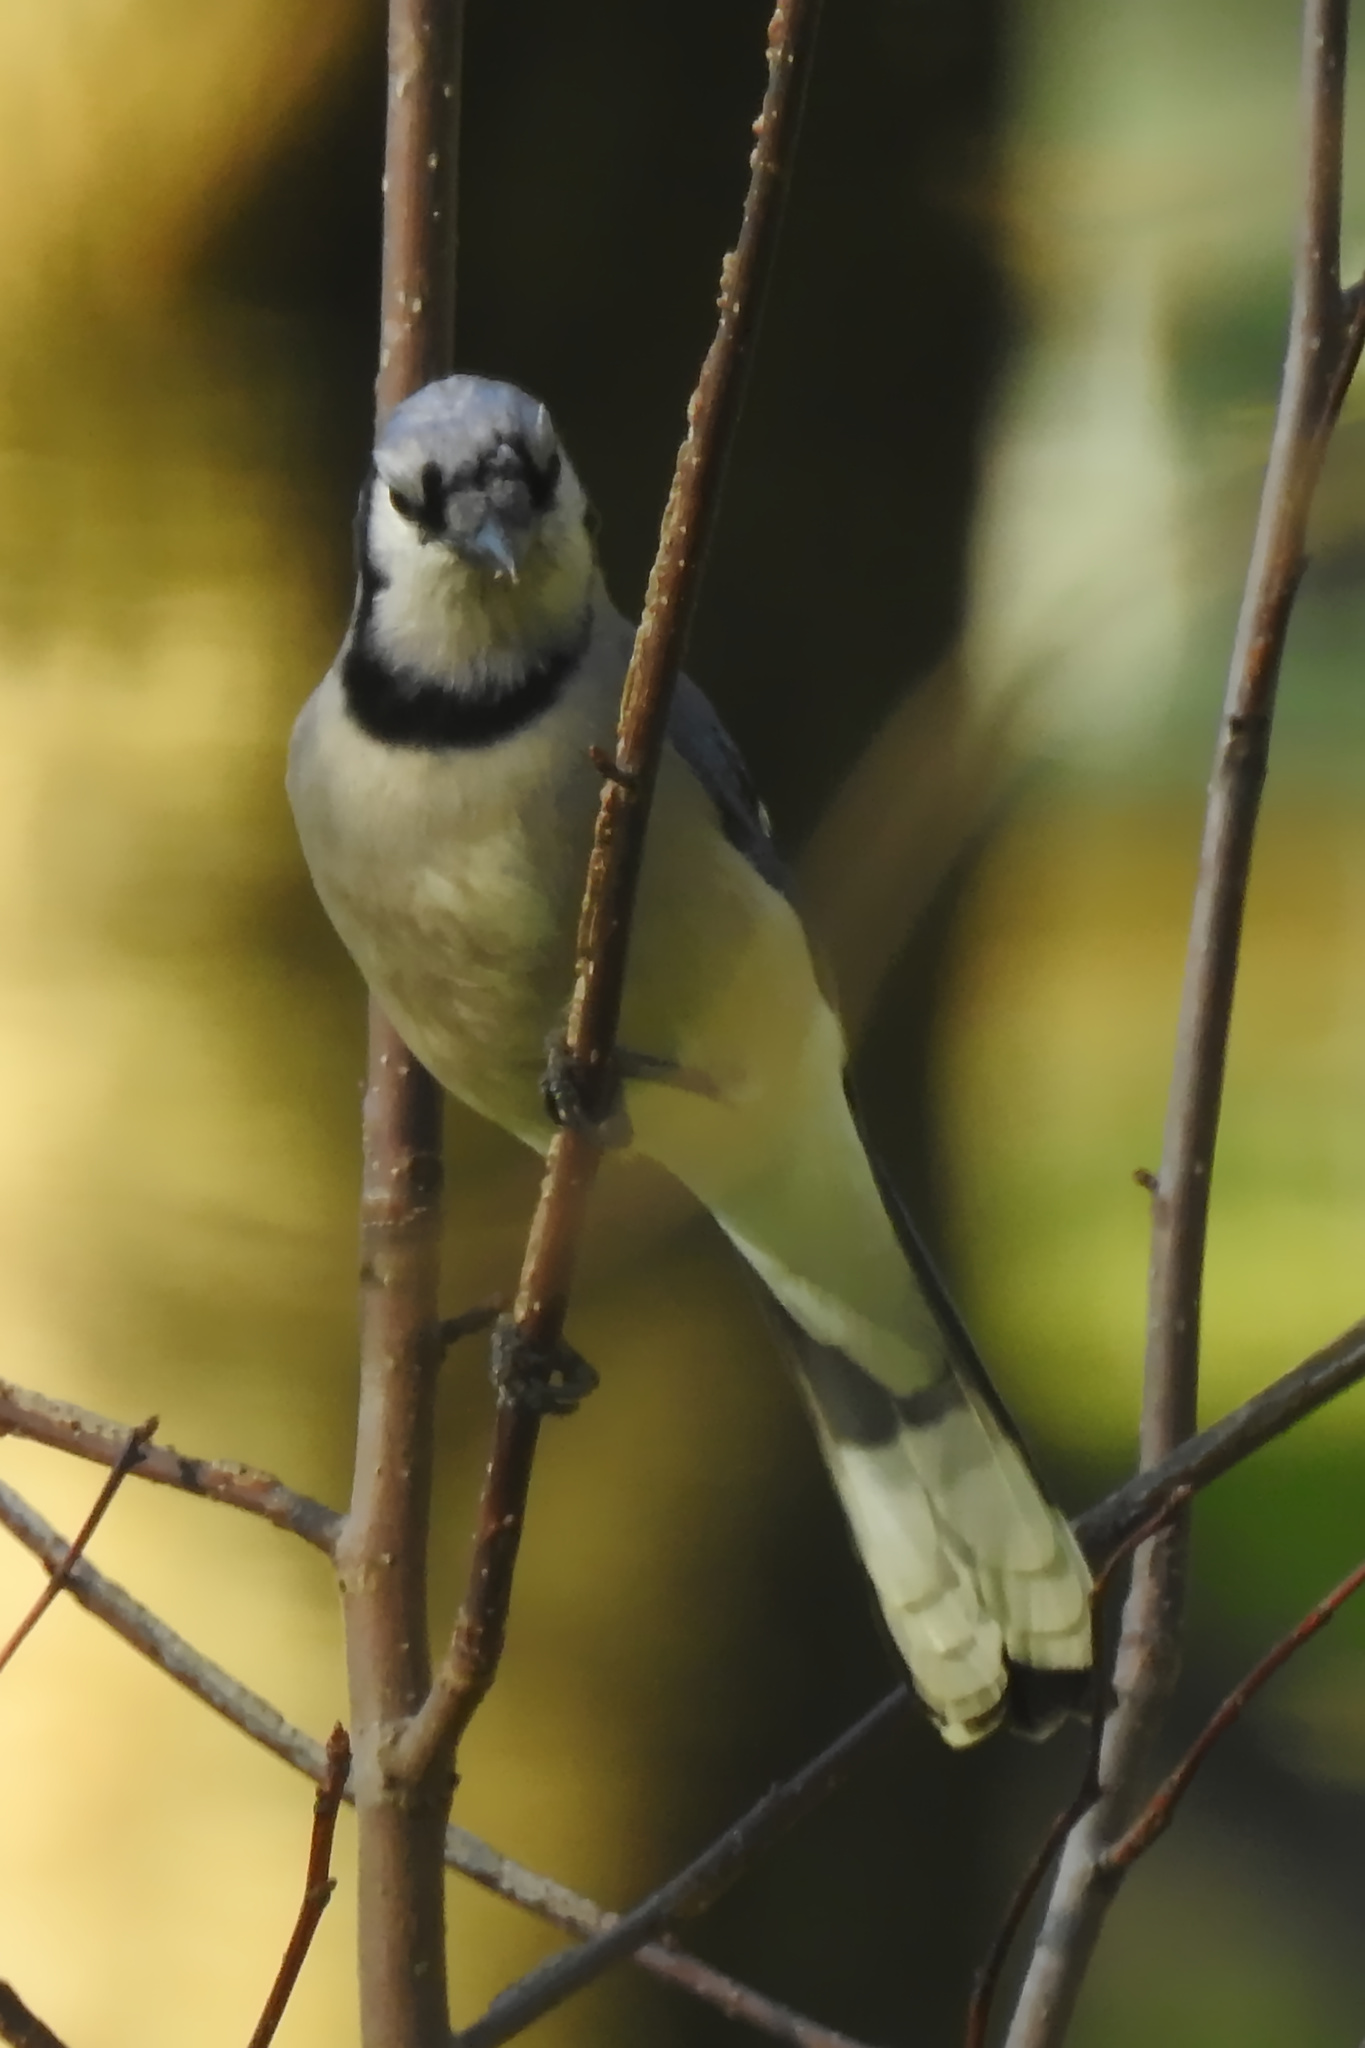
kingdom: Animalia
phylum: Chordata
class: Aves
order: Passeriformes
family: Corvidae
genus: Cyanocitta
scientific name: Cyanocitta cristata
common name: Blue jay
